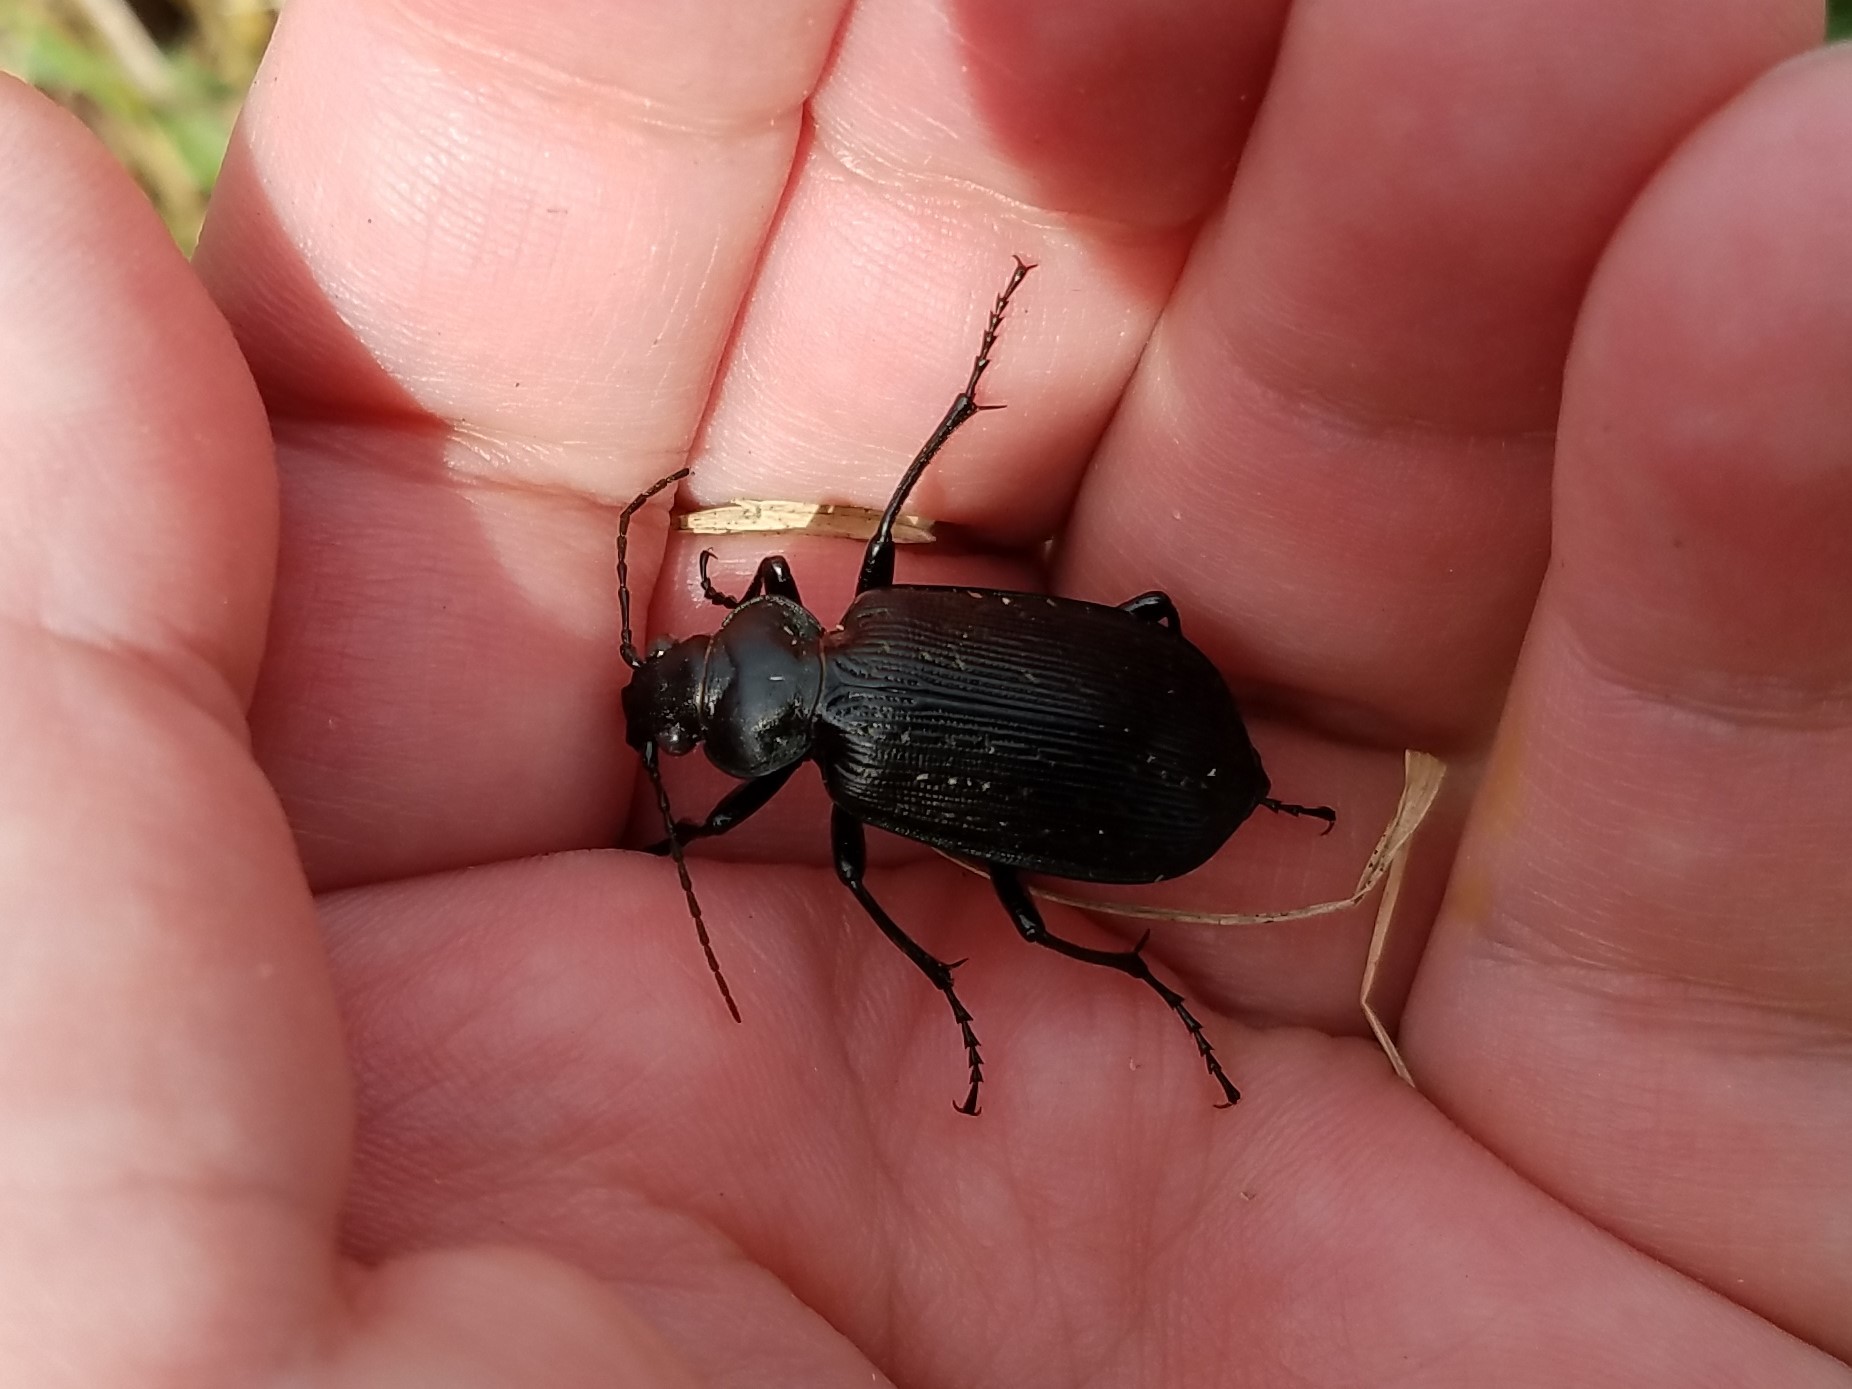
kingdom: Animalia
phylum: Arthropoda
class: Insecta
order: Coleoptera
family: Carabidae
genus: Calosoma
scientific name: Calosoma sayi
